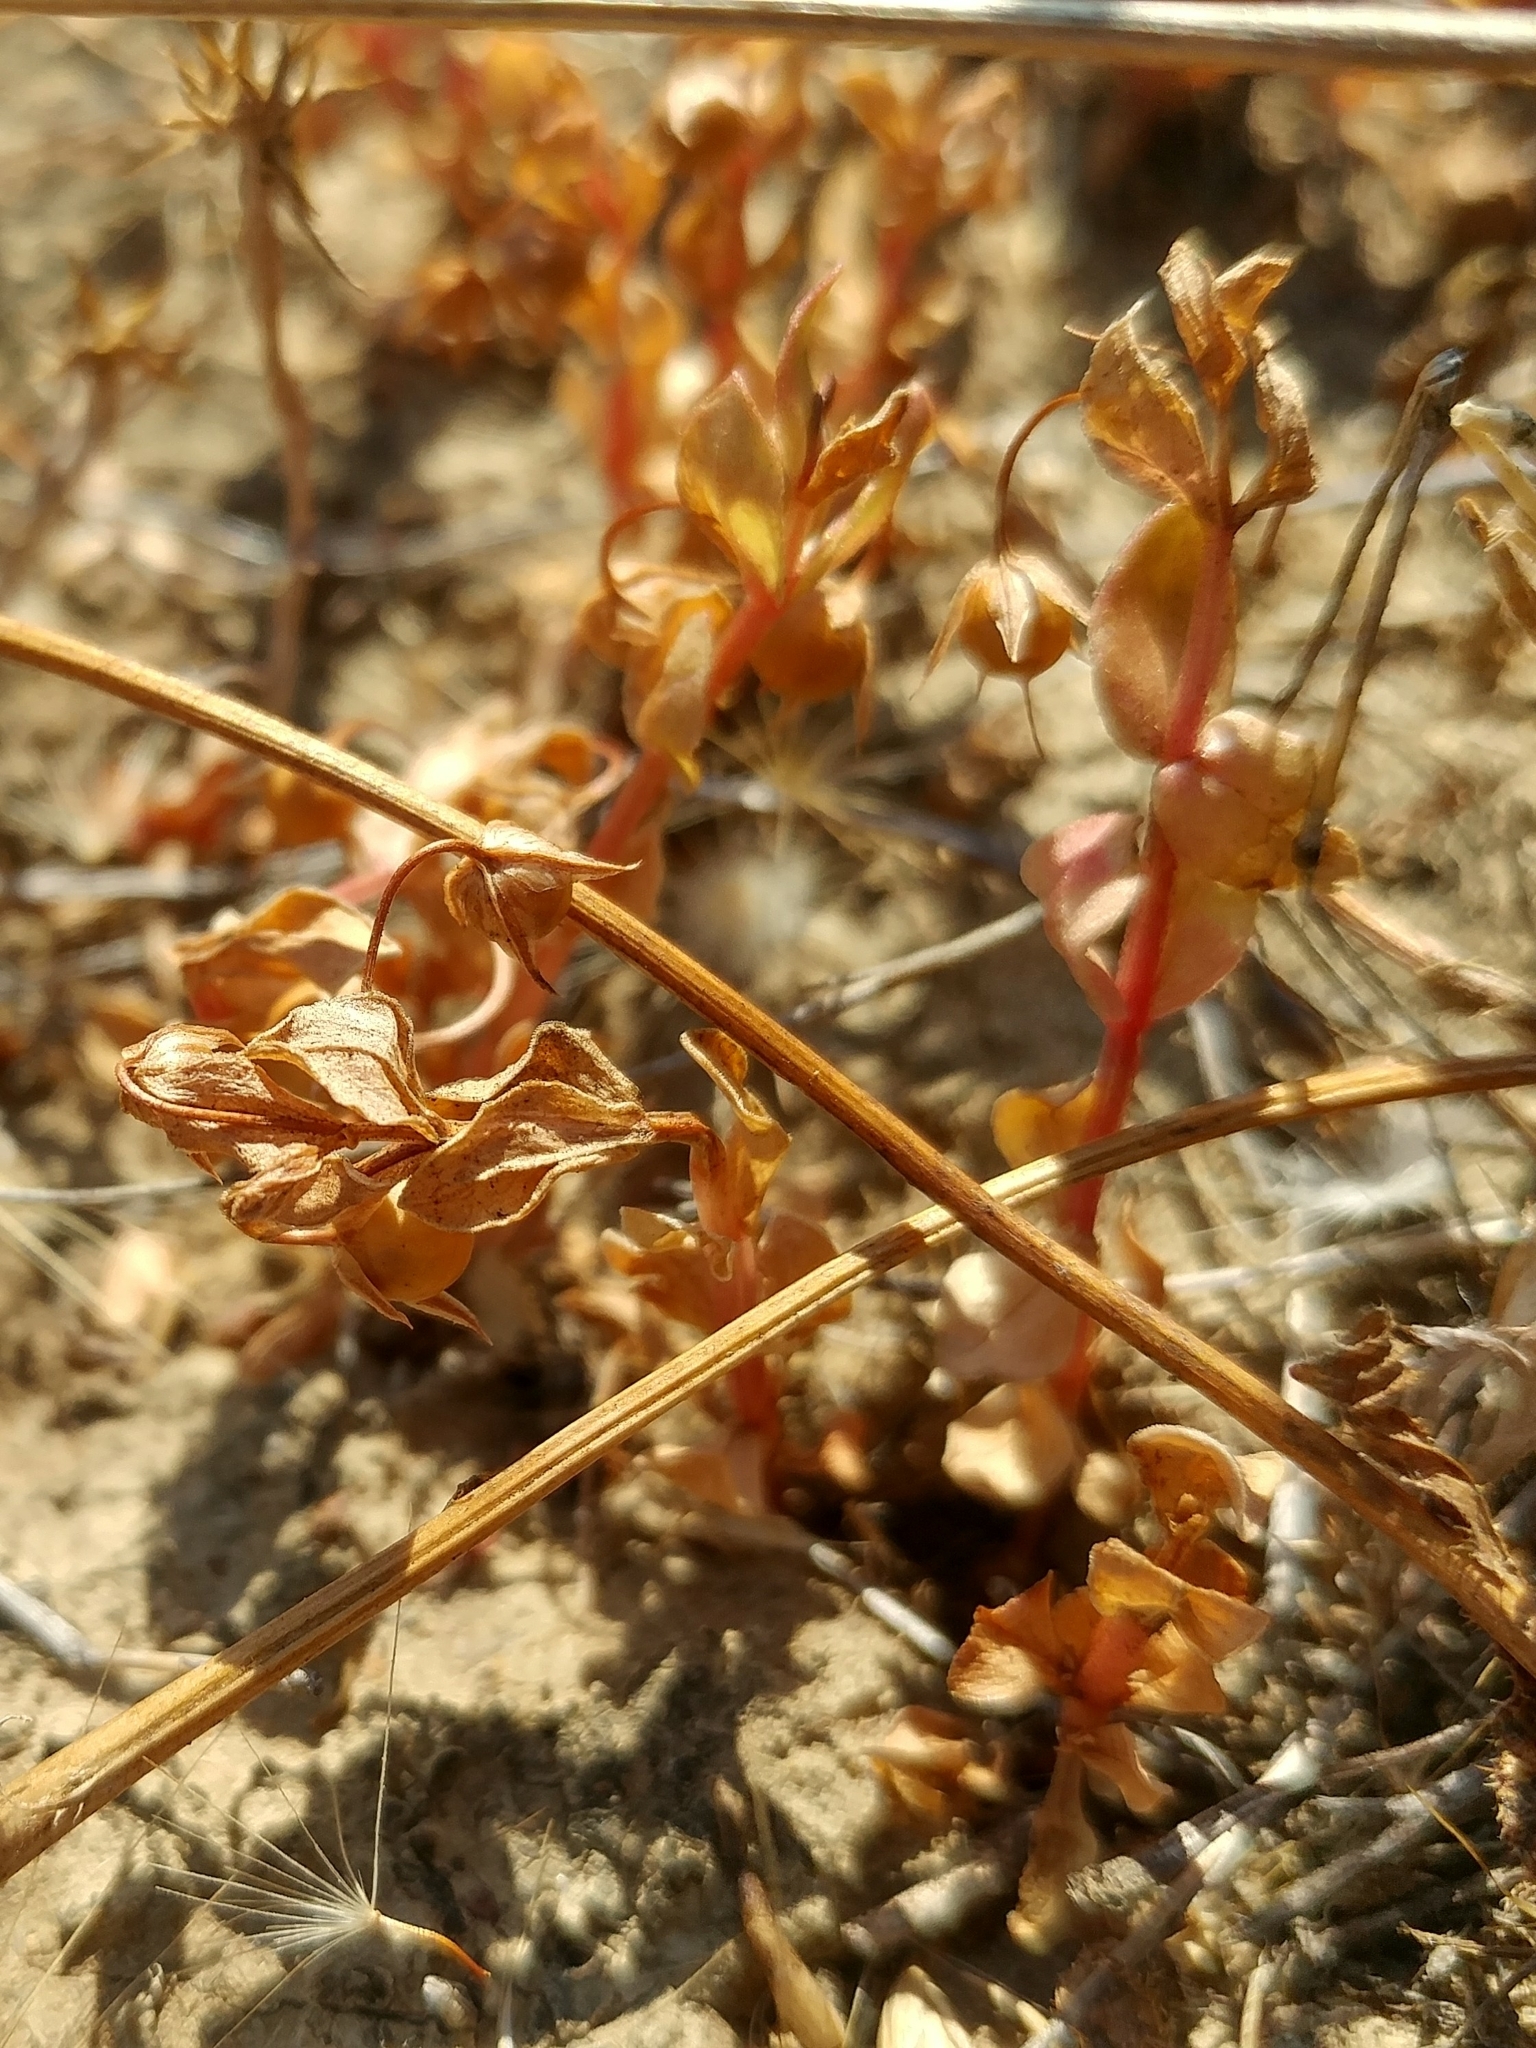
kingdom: Plantae
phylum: Tracheophyta
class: Magnoliopsida
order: Ericales
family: Primulaceae
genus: Lysimachia
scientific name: Lysimachia arvensis
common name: Scarlet pimpernel
